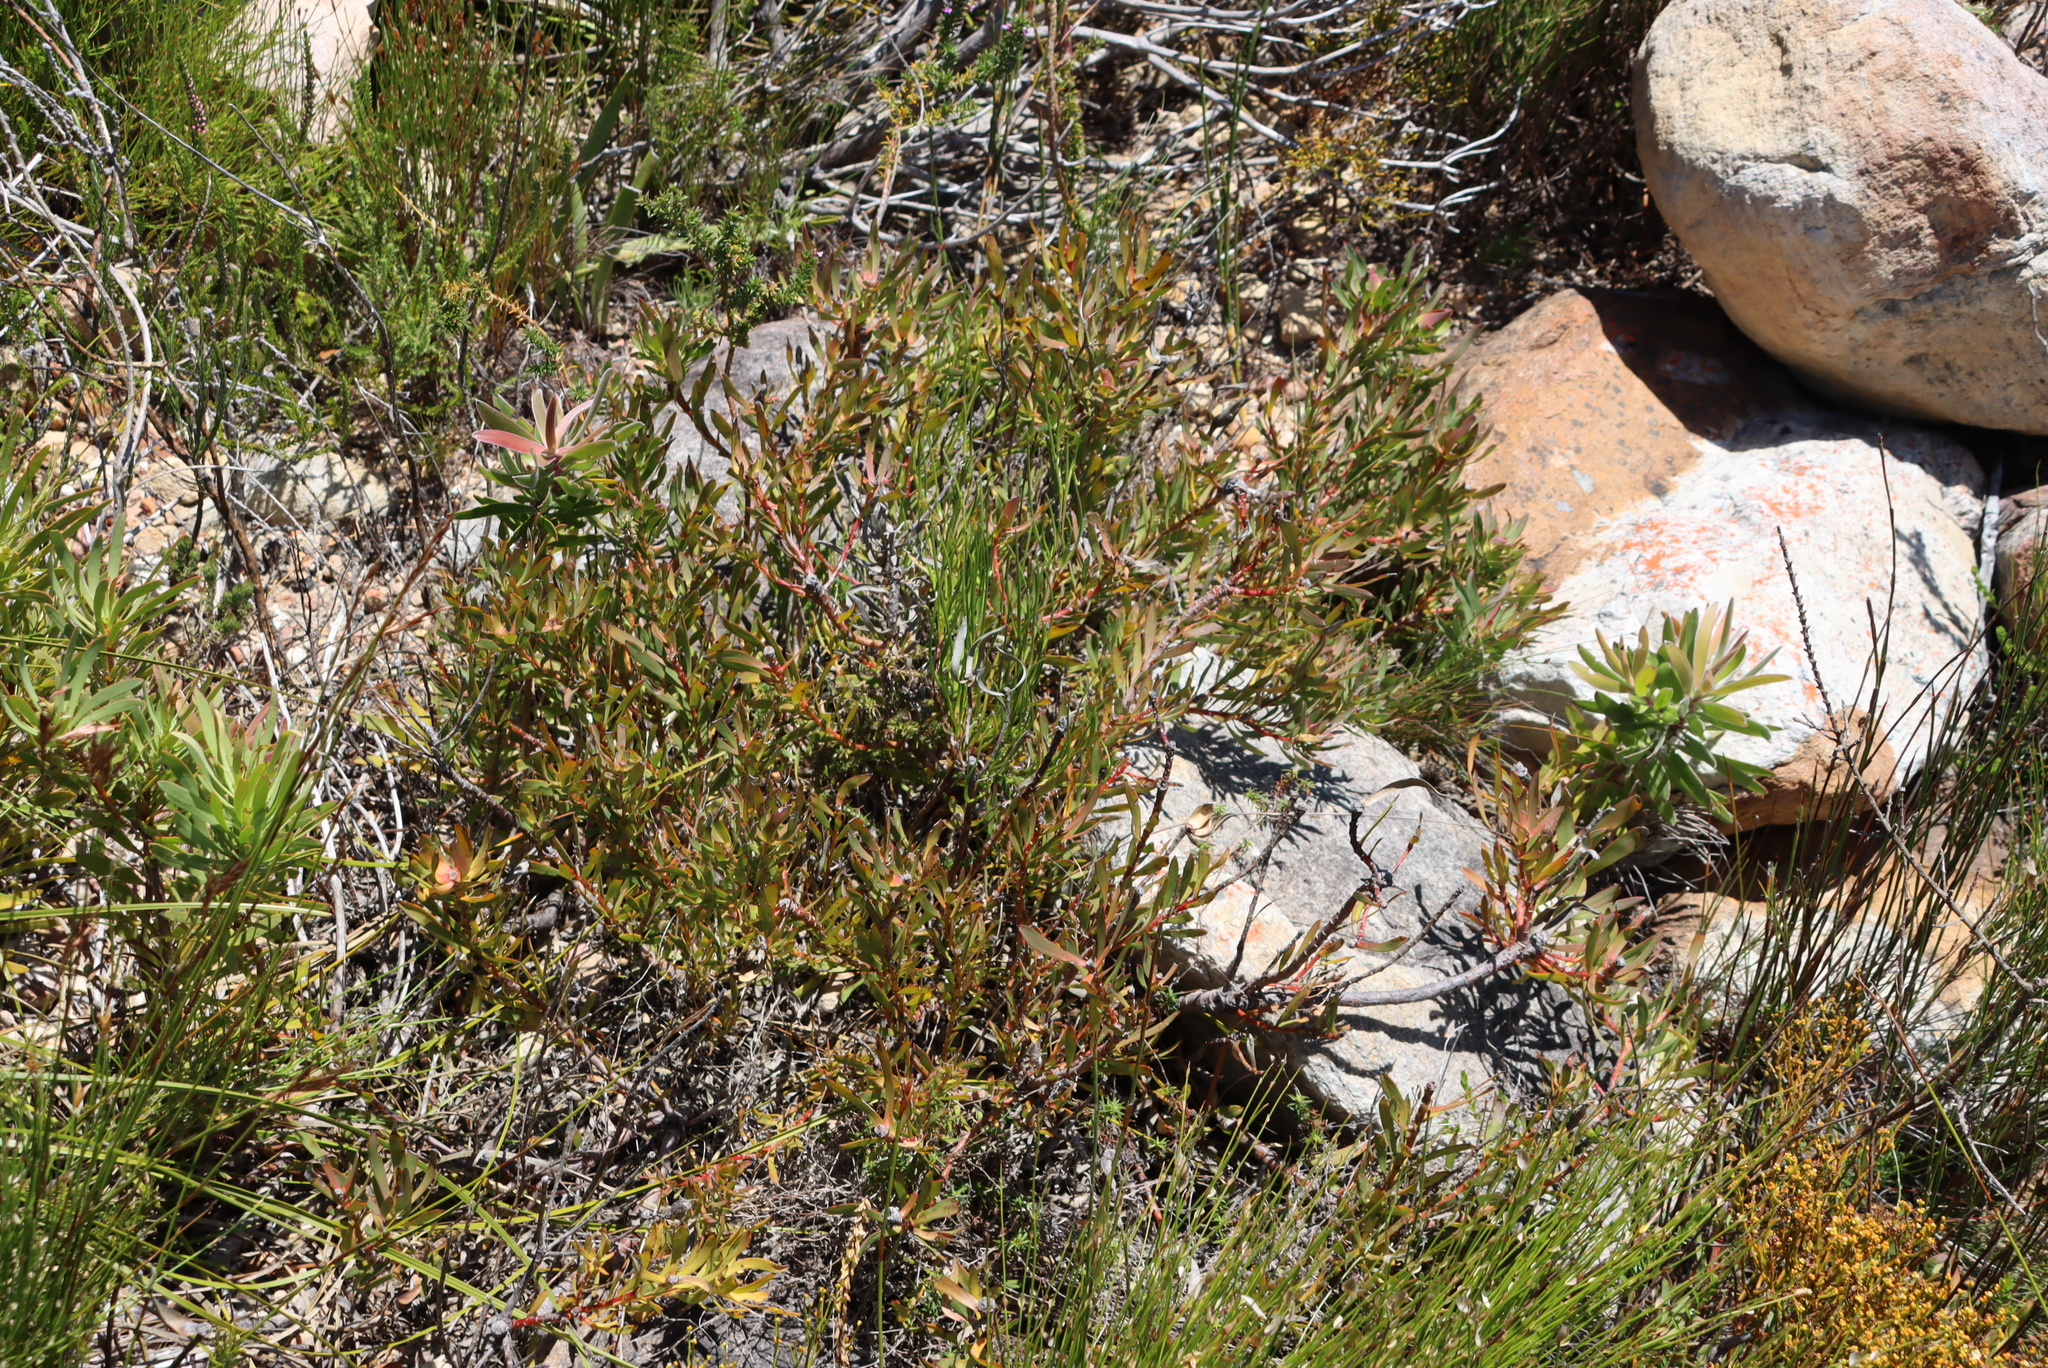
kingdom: Plantae
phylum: Tracheophyta
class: Magnoliopsida
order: Proteales
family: Proteaceae
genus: Leucadendron
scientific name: Leucadendron salignum
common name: Common sunshine conebush
